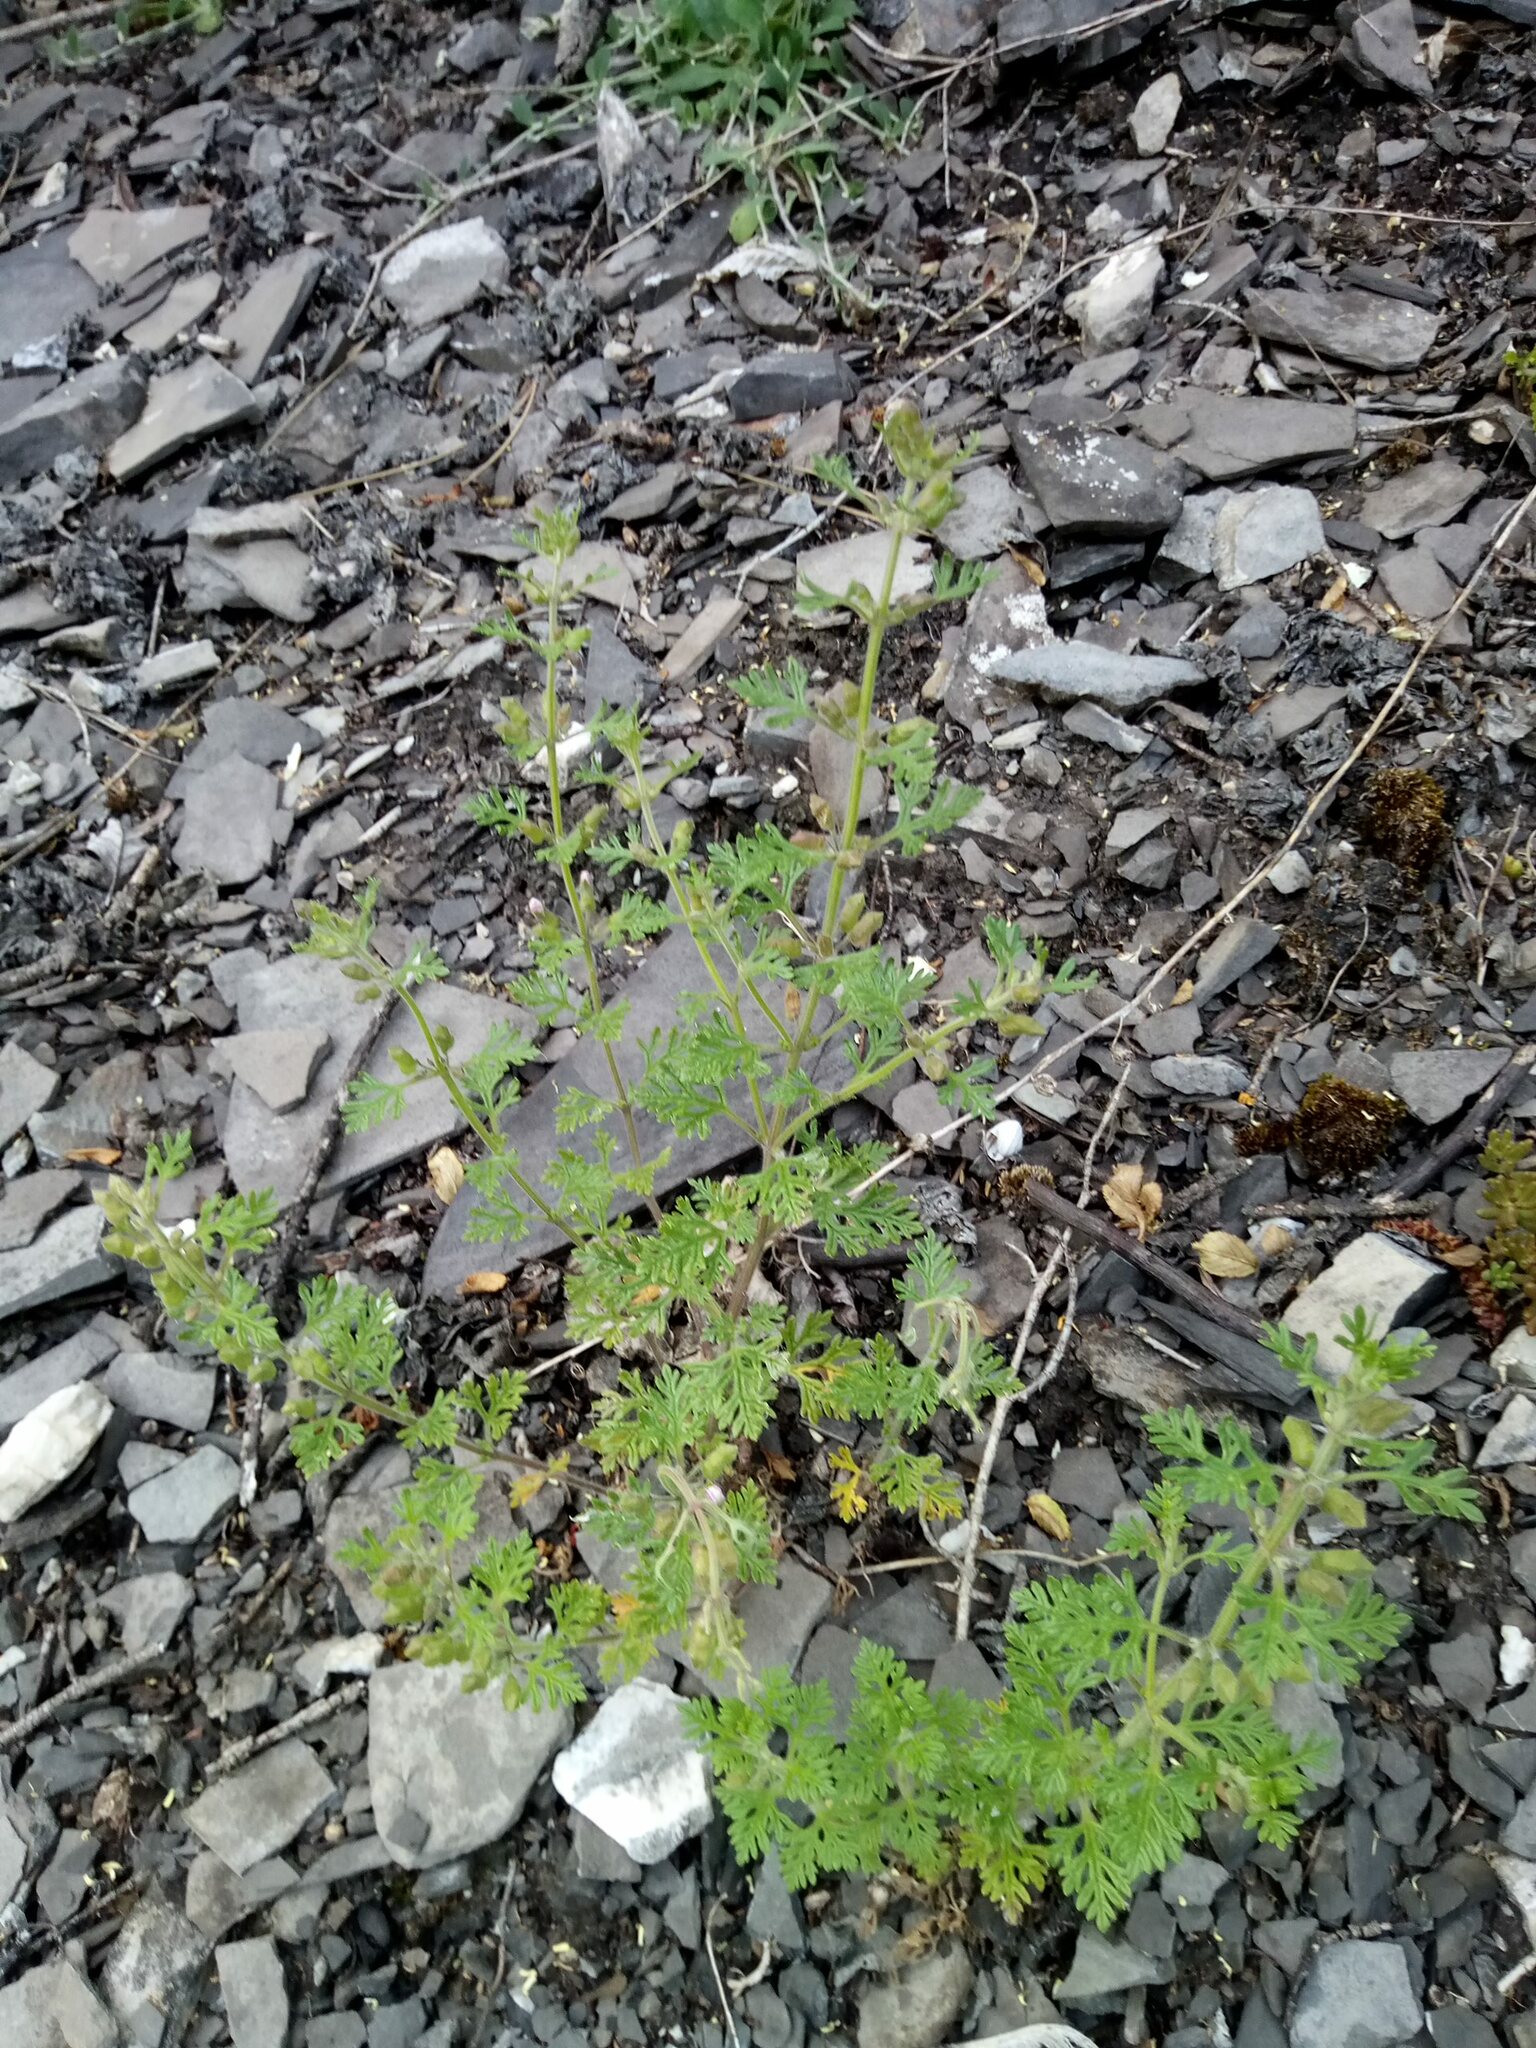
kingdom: Plantae
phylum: Tracheophyta
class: Magnoliopsida
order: Lamiales
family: Lamiaceae
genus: Teucrium
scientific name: Teucrium botrys
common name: Cut-leaved germander
